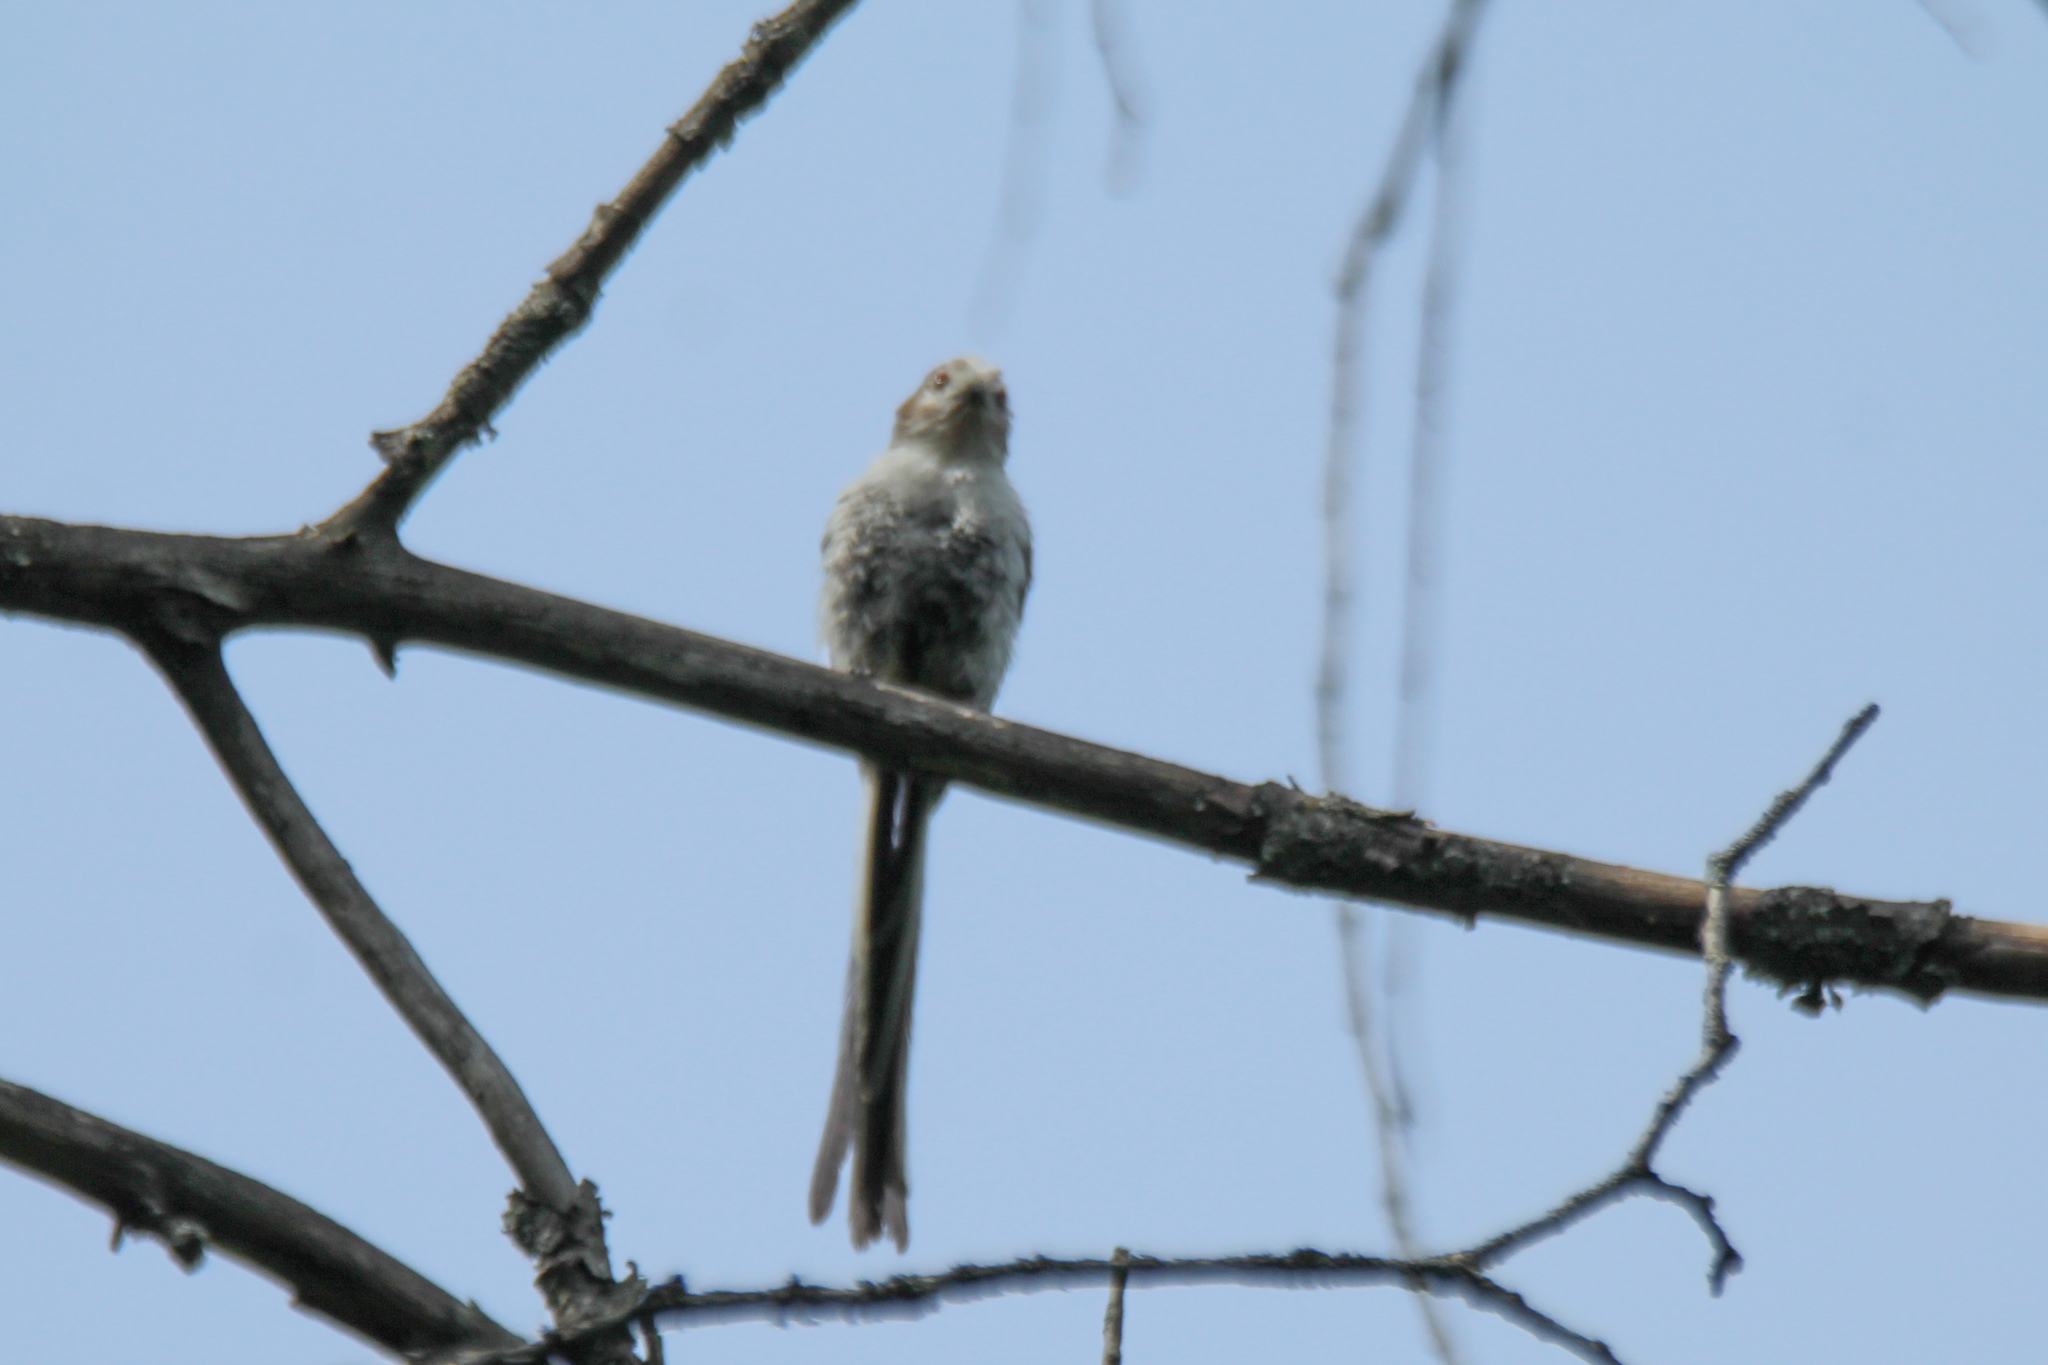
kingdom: Animalia
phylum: Chordata
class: Aves
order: Passeriformes
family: Aegithalidae
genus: Aegithalos
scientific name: Aegithalos caudatus
